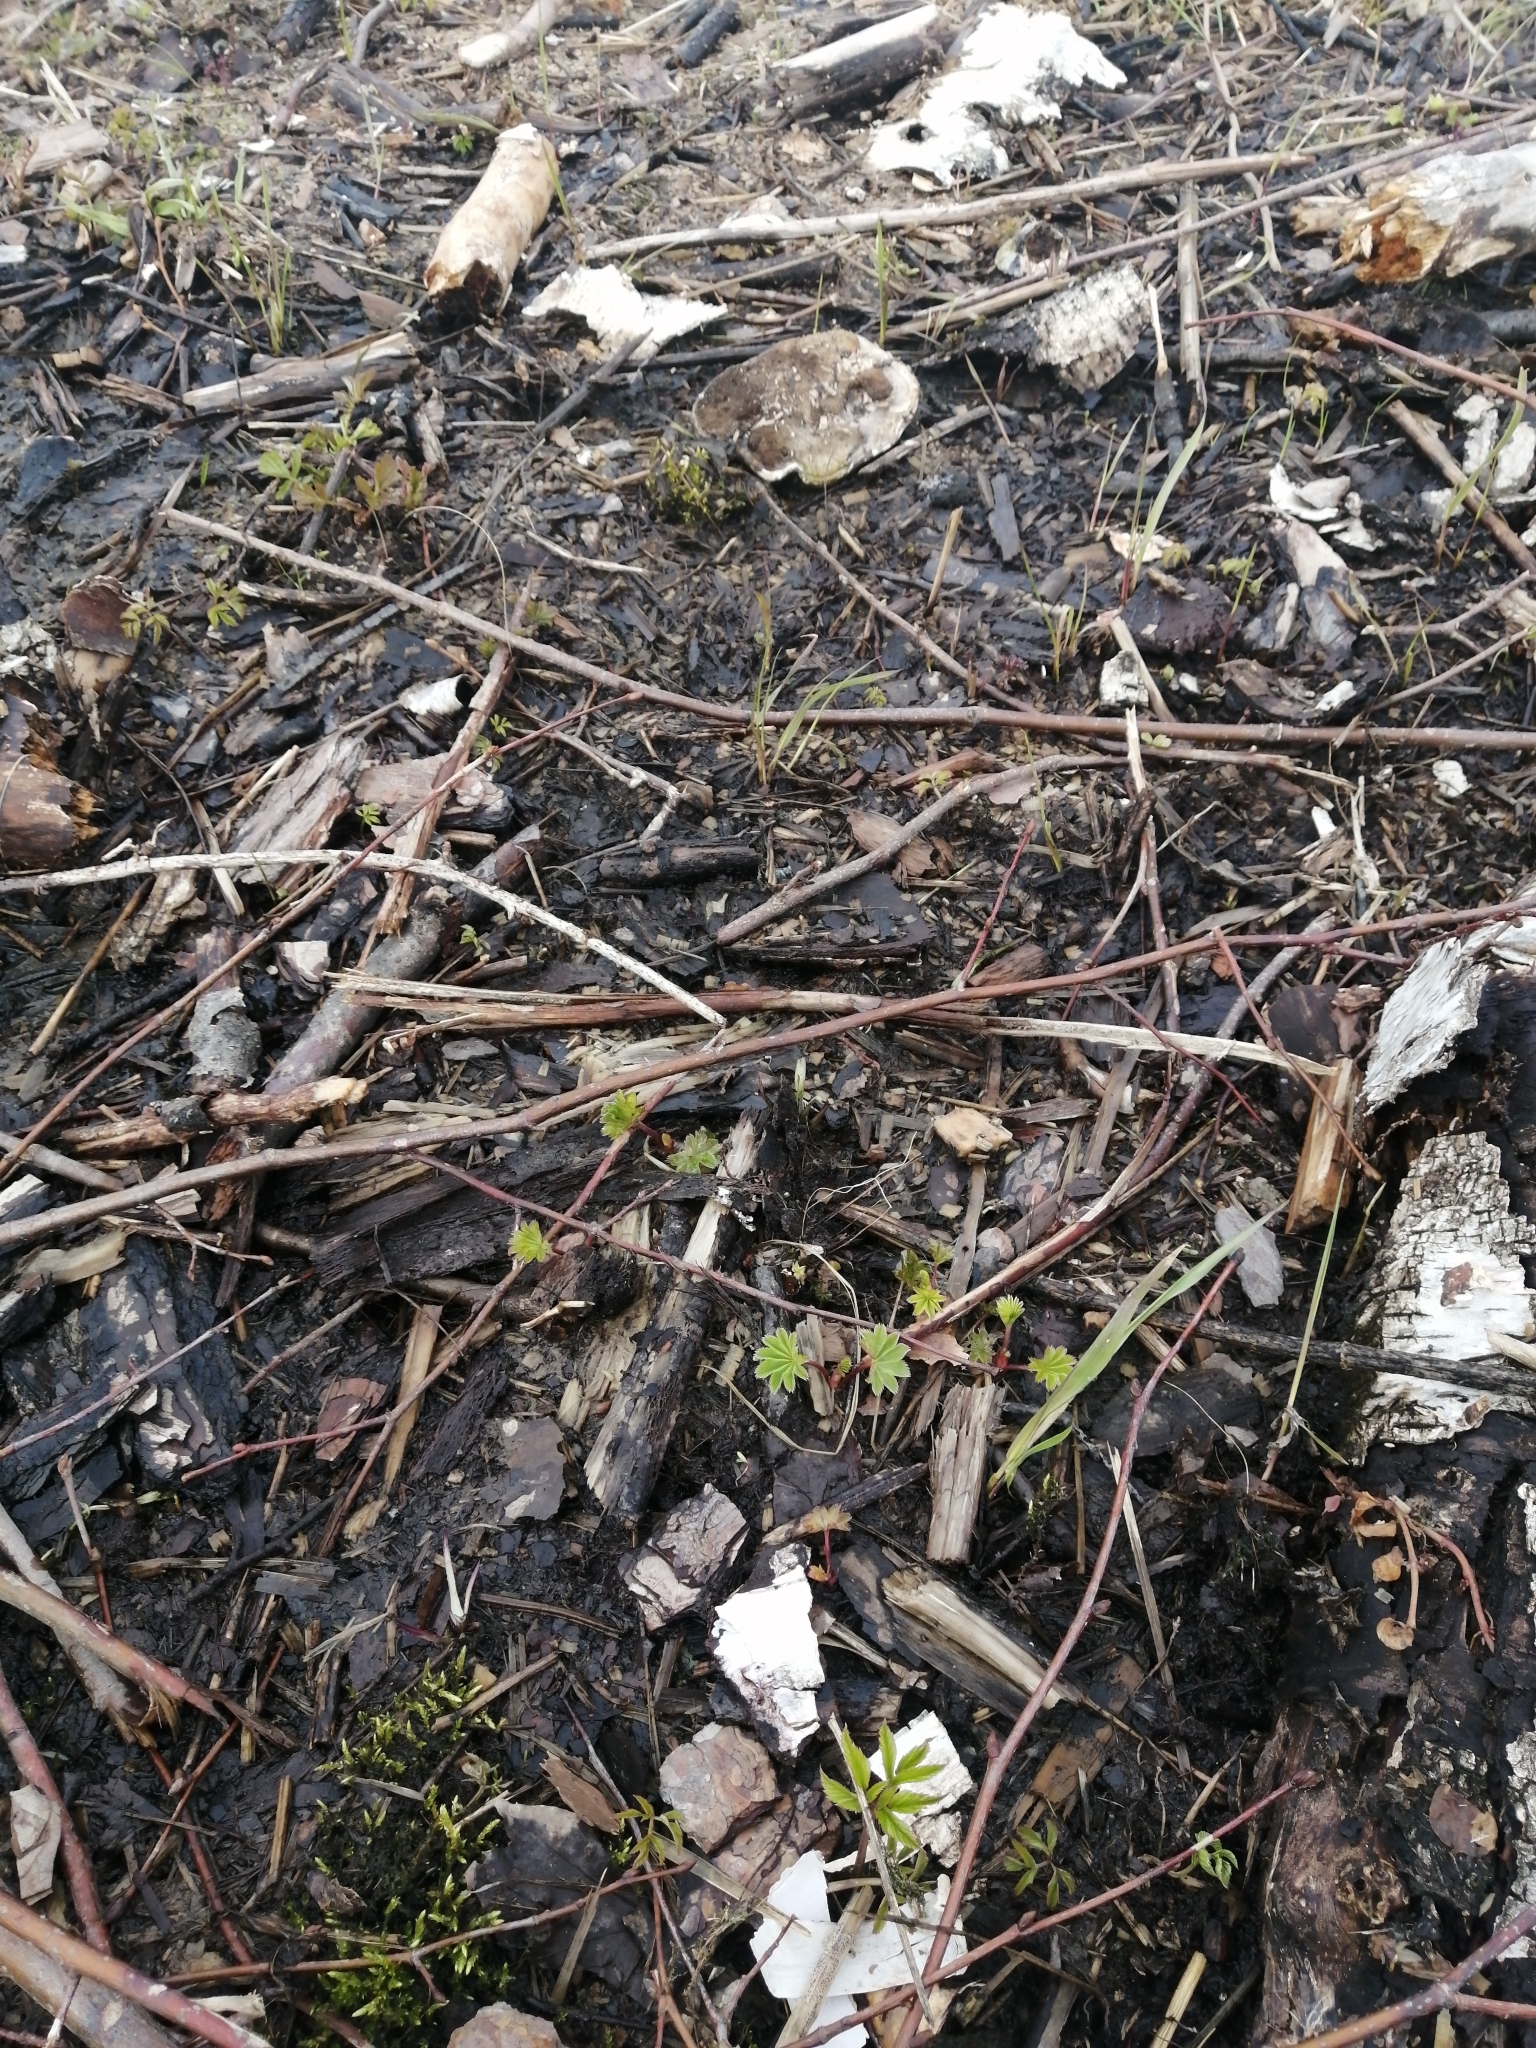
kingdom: Plantae
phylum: Tracheophyta
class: Magnoliopsida
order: Rosales
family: Rosaceae
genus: Alchemilla
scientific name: Alchemilla
